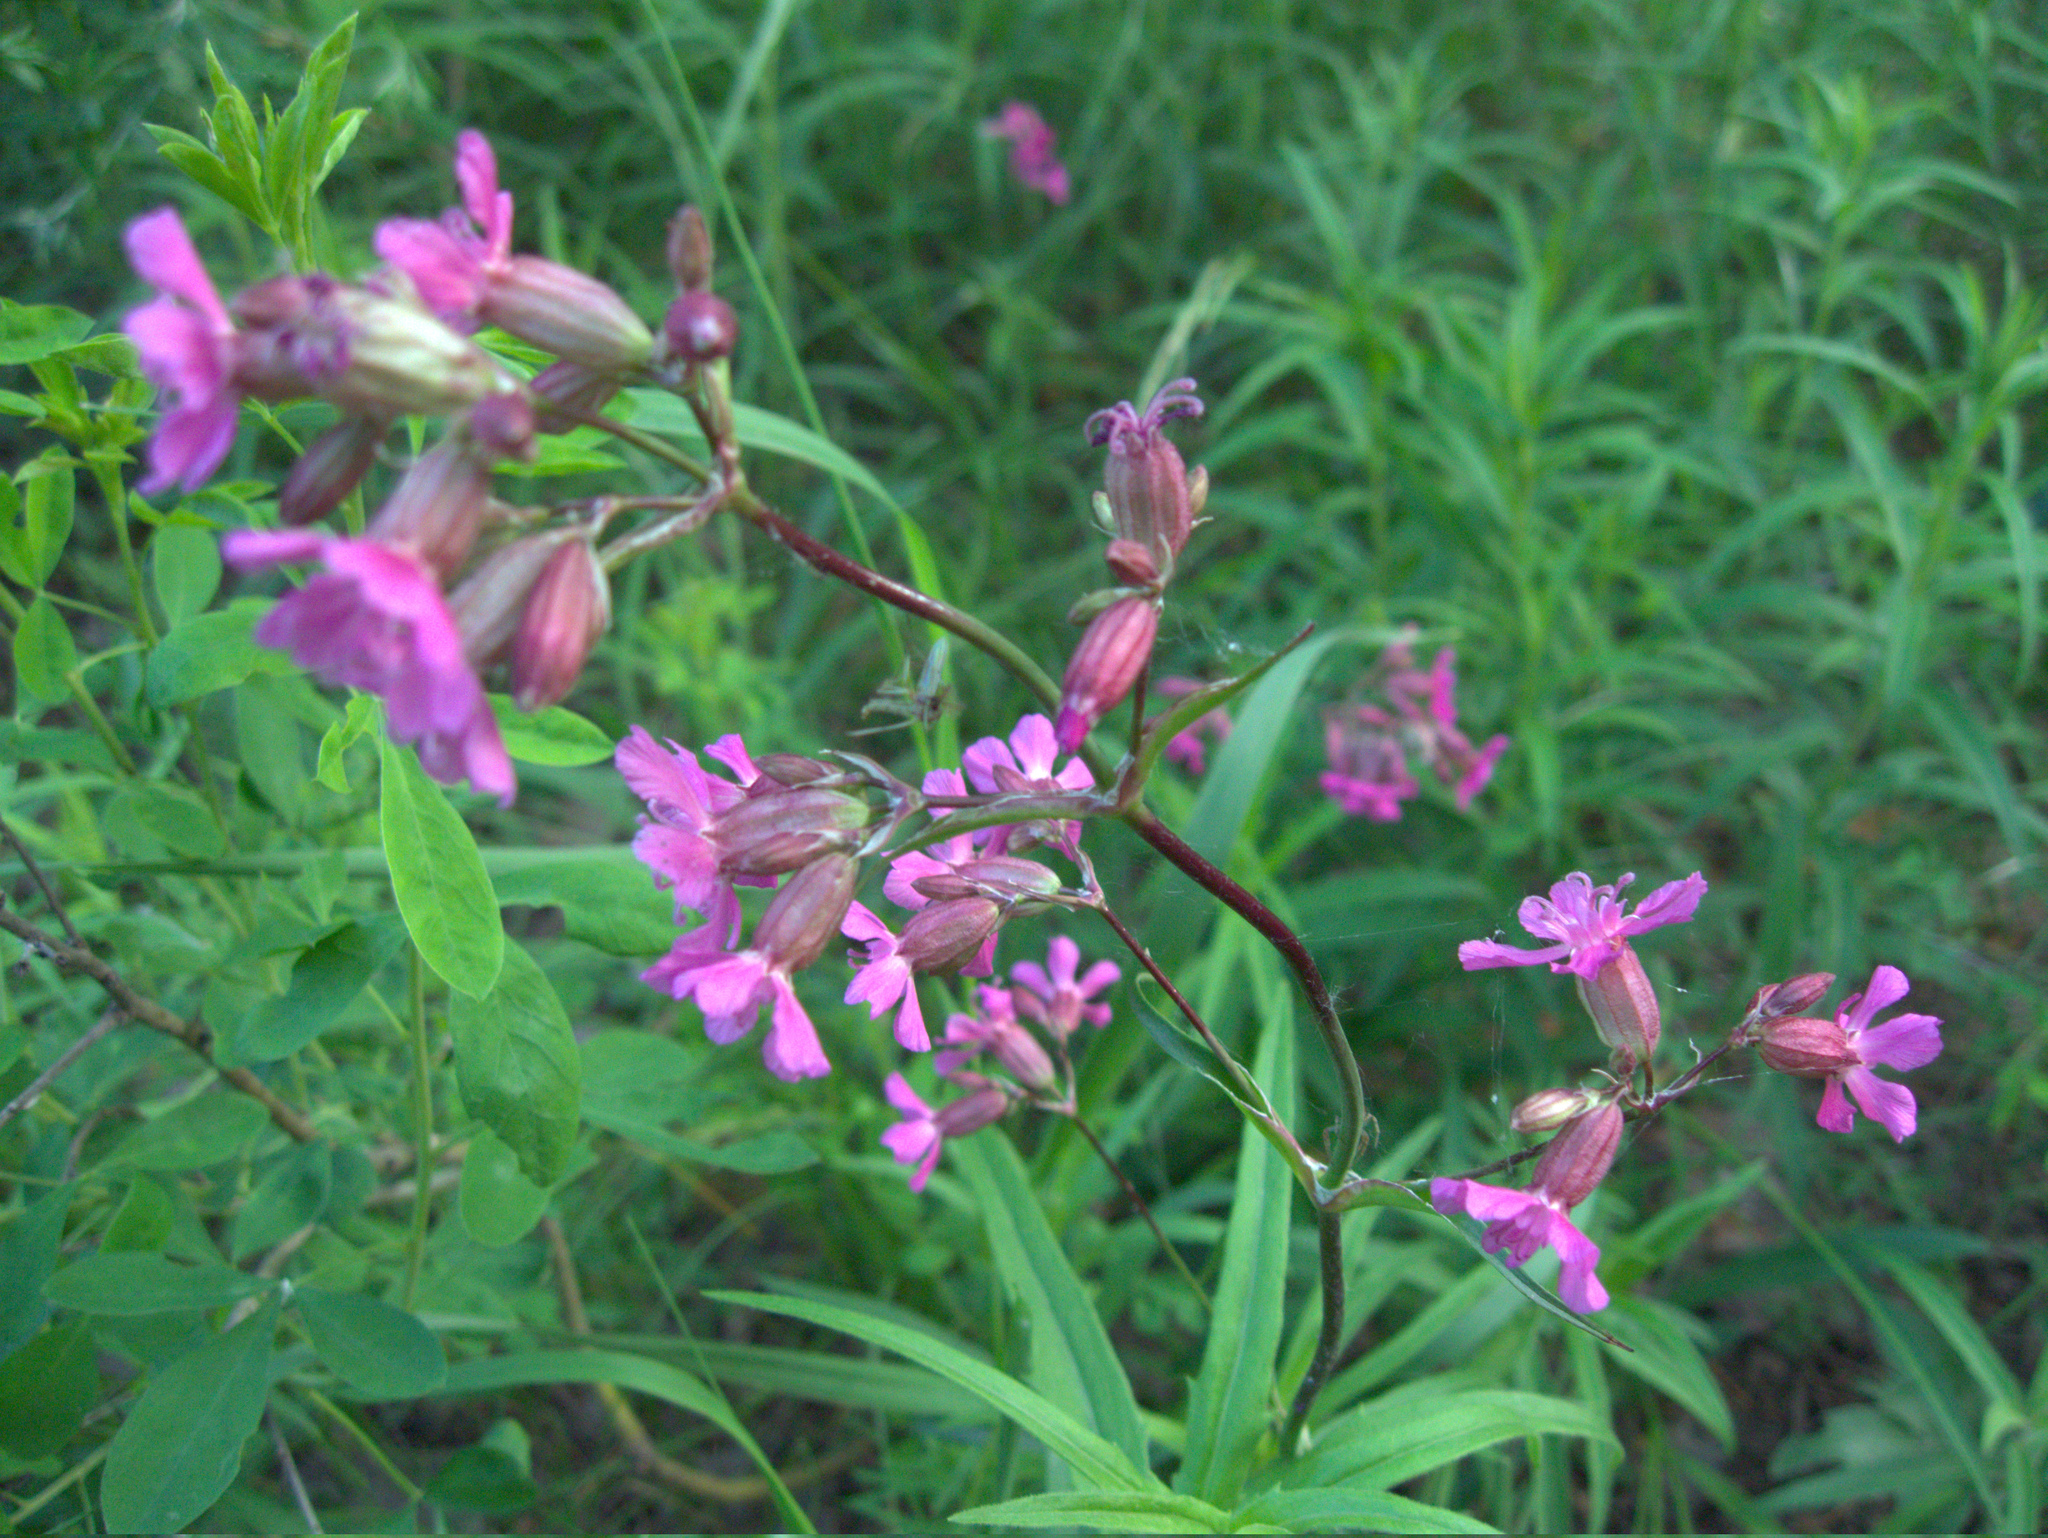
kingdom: Plantae
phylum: Tracheophyta
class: Magnoliopsida
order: Caryophyllales
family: Caryophyllaceae
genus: Viscaria
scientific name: Viscaria vulgaris
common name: Clammy campion
